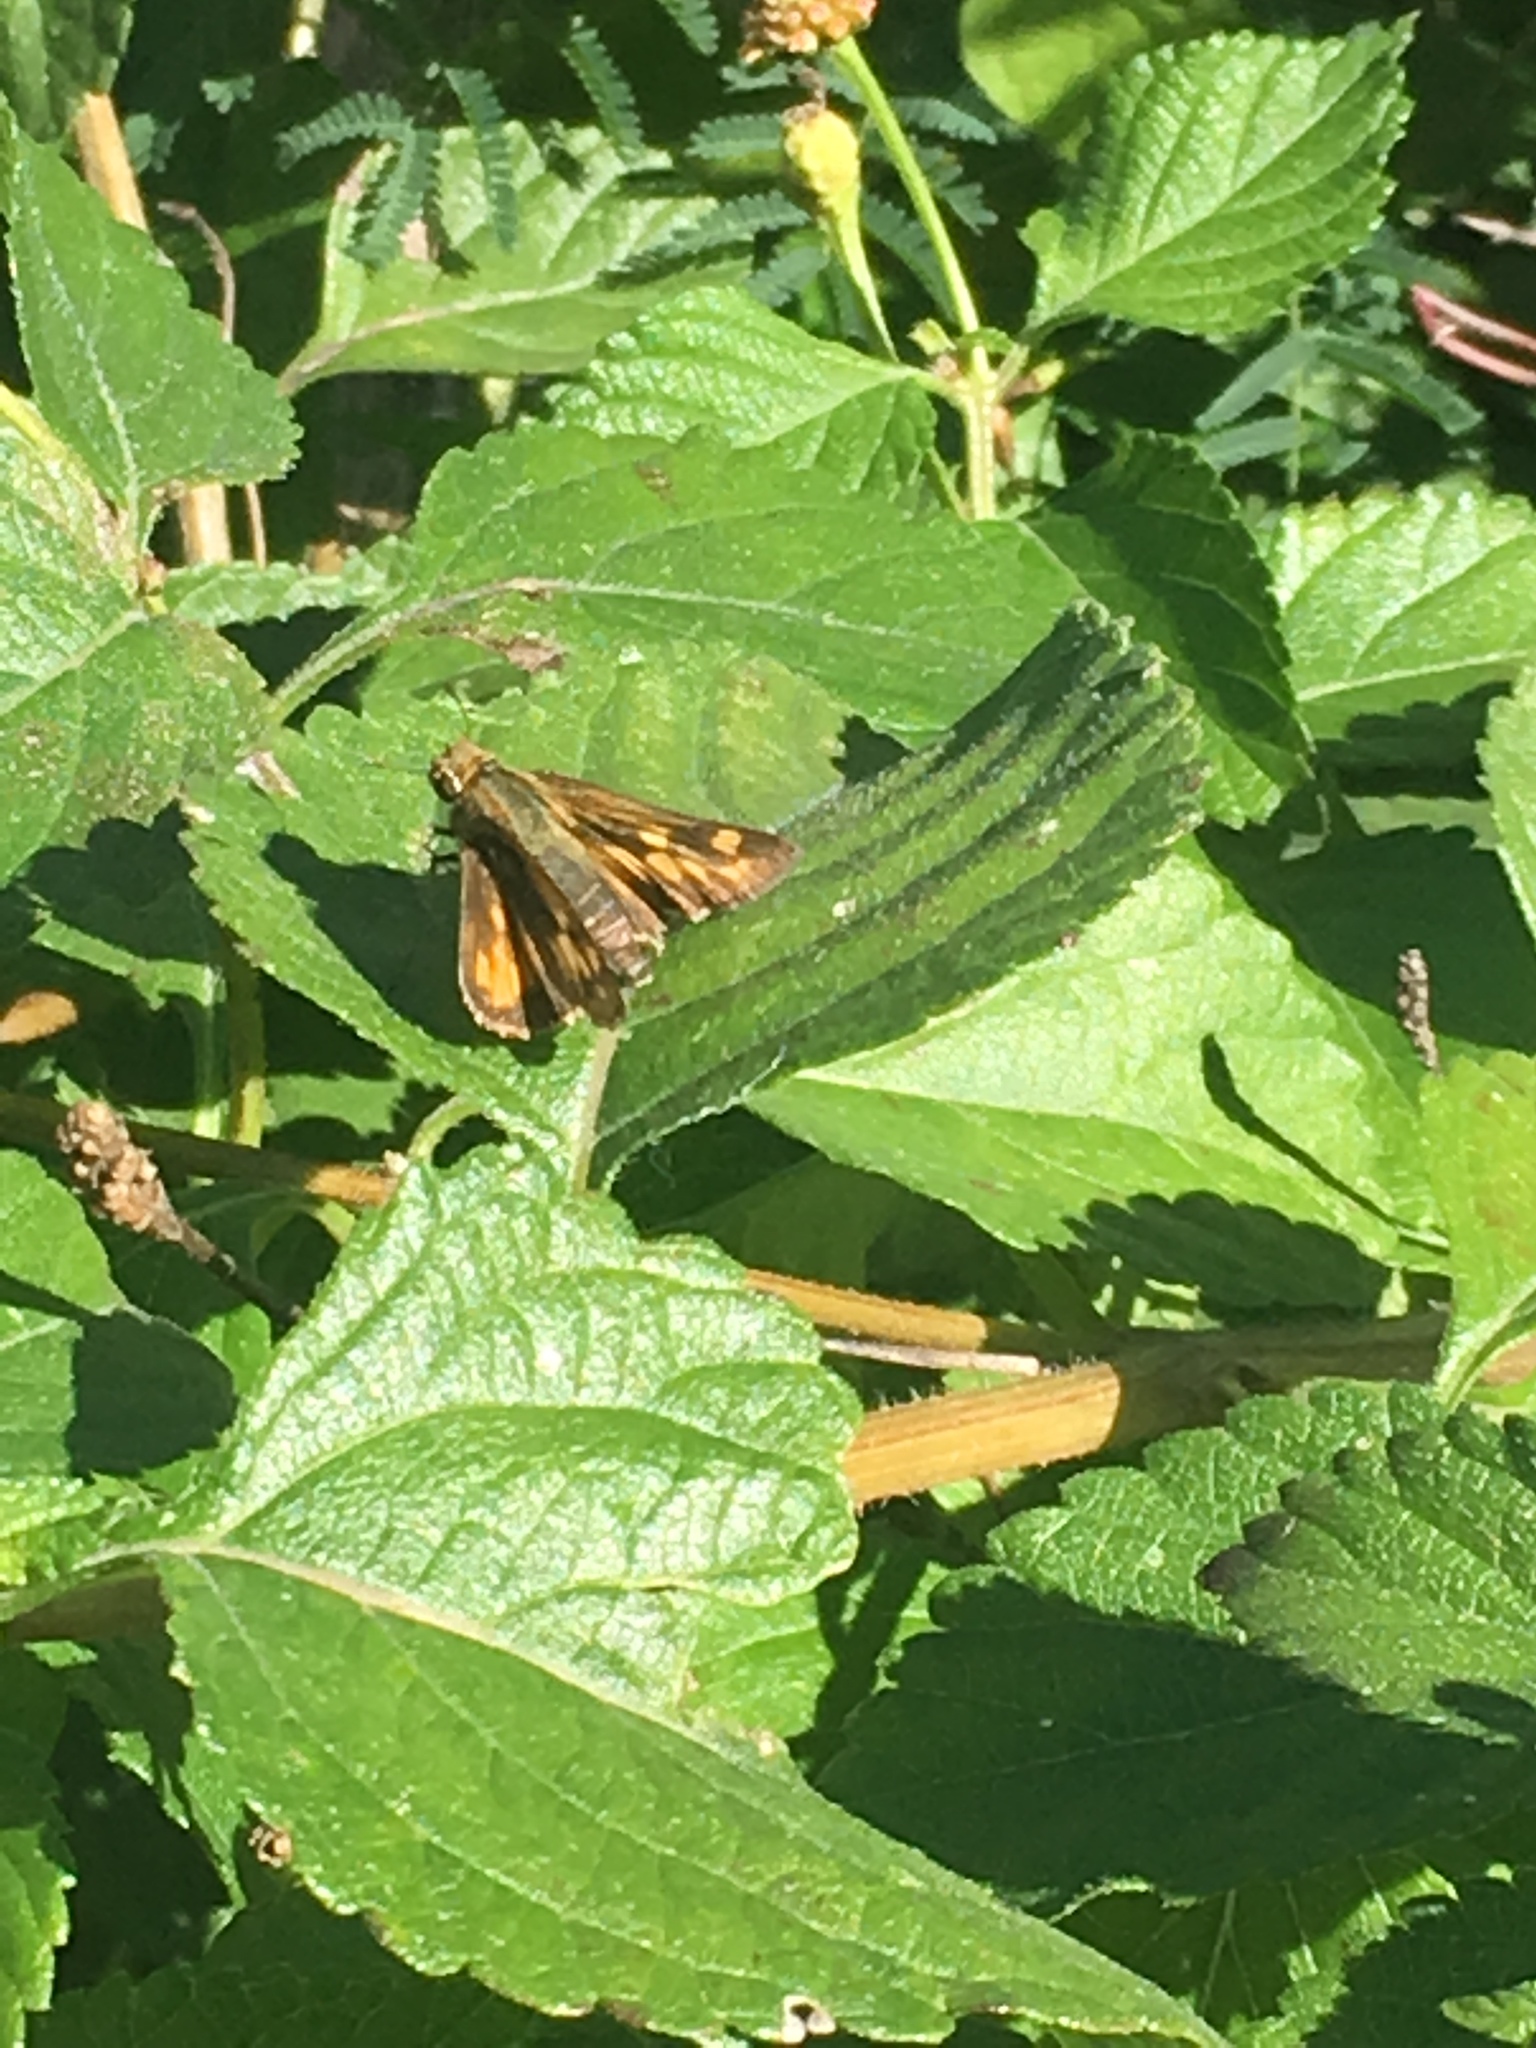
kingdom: Animalia
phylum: Arthropoda
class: Insecta
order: Lepidoptera
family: Hesperiidae
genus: Atalopedes
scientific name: Atalopedes
